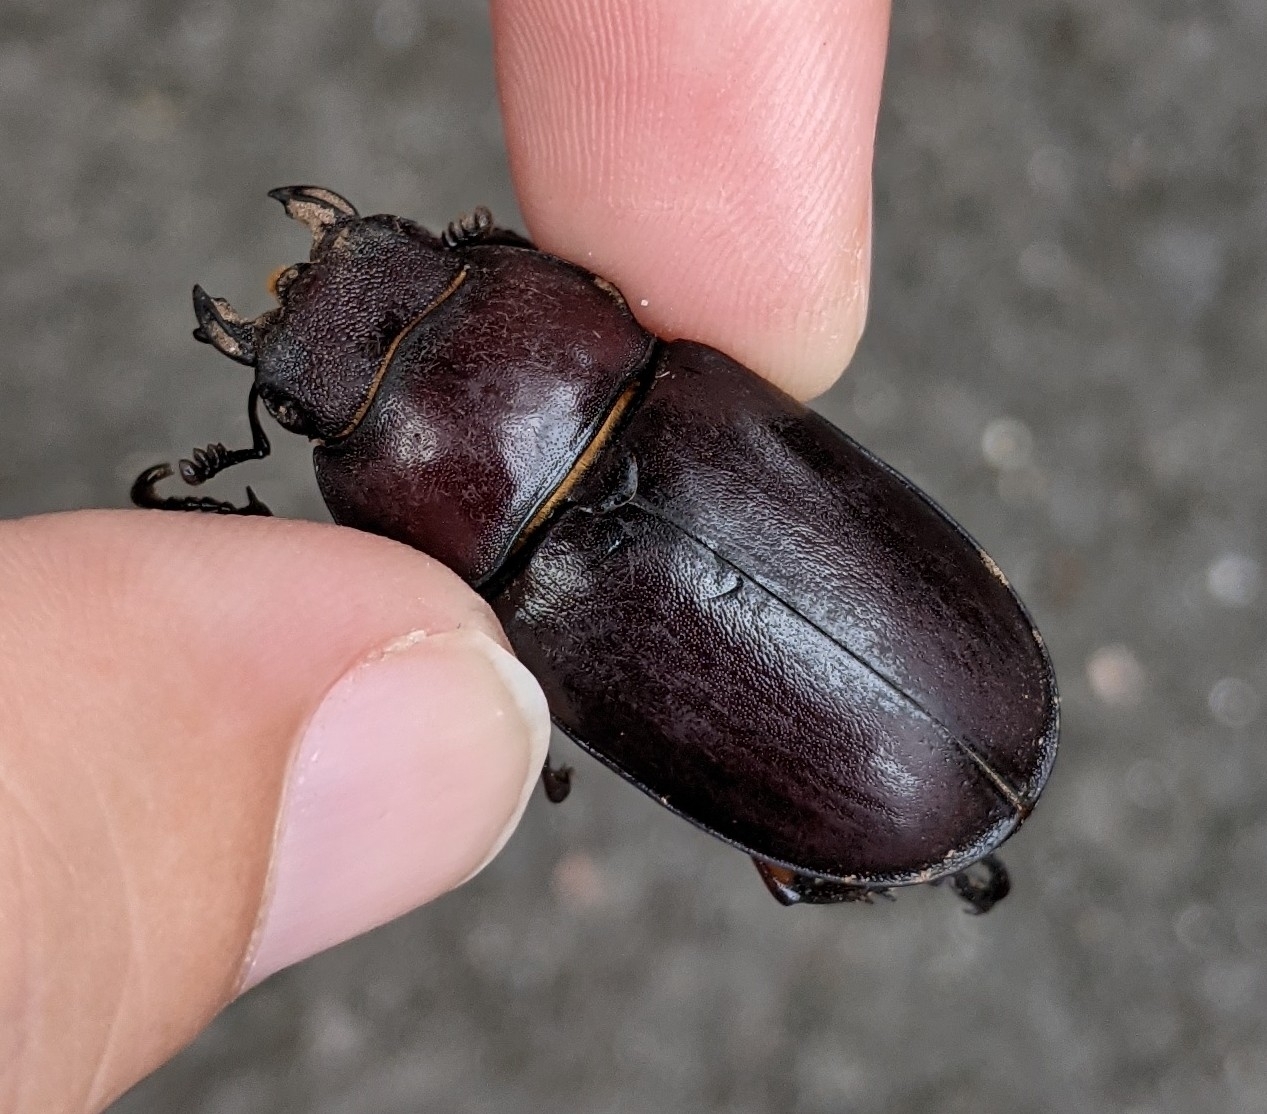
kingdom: Animalia
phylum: Arthropoda
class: Insecta
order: Coleoptera
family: Lucanidae
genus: Lucanus
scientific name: Lucanus capreolus
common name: Stag beetle
